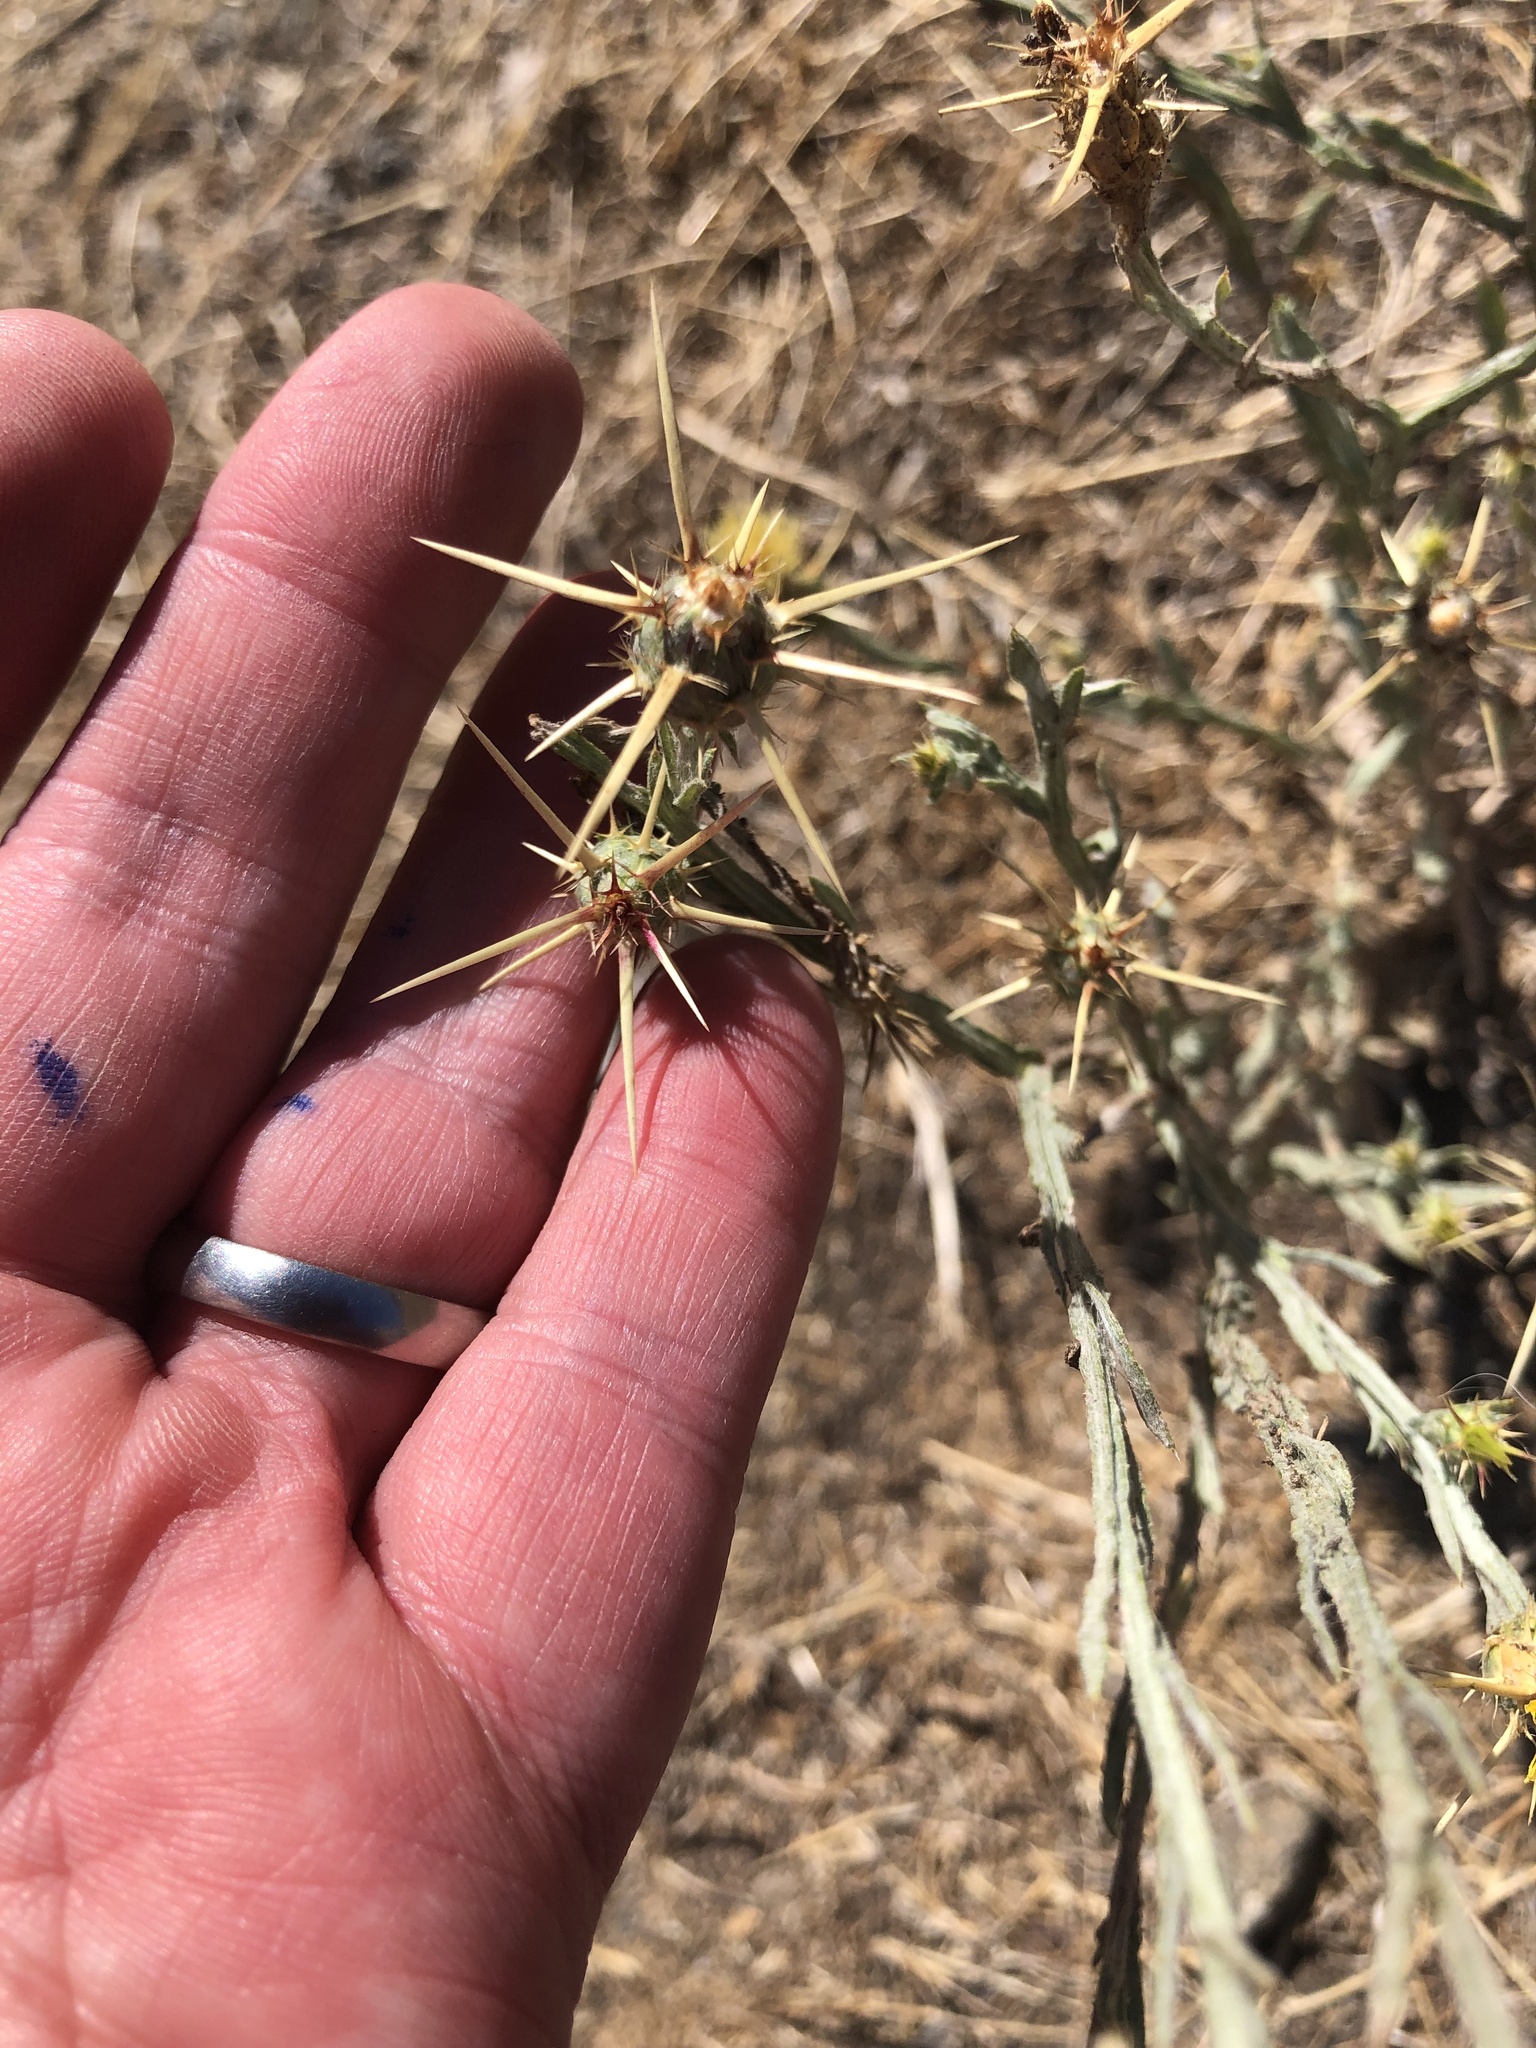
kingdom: Plantae
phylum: Tracheophyta
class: Magnoliopsida
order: Asterales
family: Asteraceae
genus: Centaurea
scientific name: Centaurea solstitialis
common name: Yellow star-thistle
